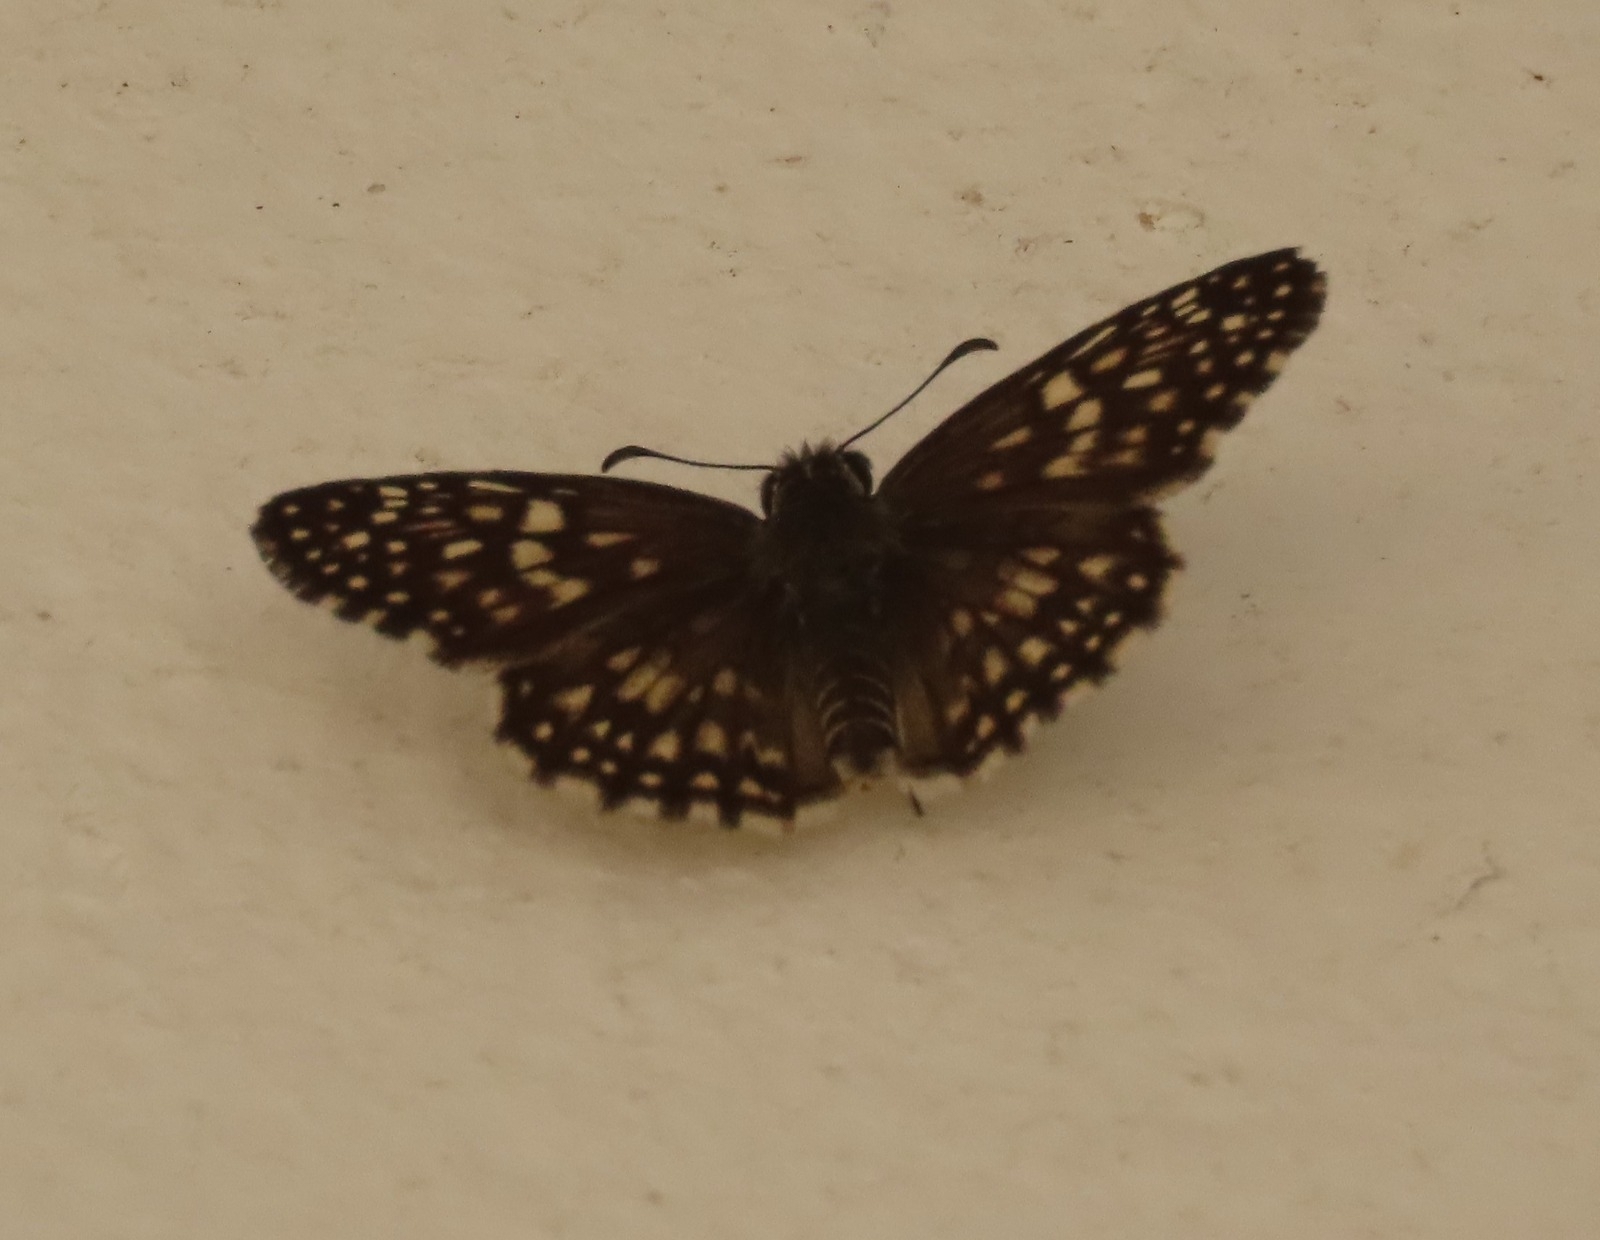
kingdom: Animalia
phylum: Arthropoda
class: Insecta
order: Lepidoptera
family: Hesperiidae
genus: Pyrgus
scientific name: Pyrgus oileus
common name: Tropical checkered-skipper
